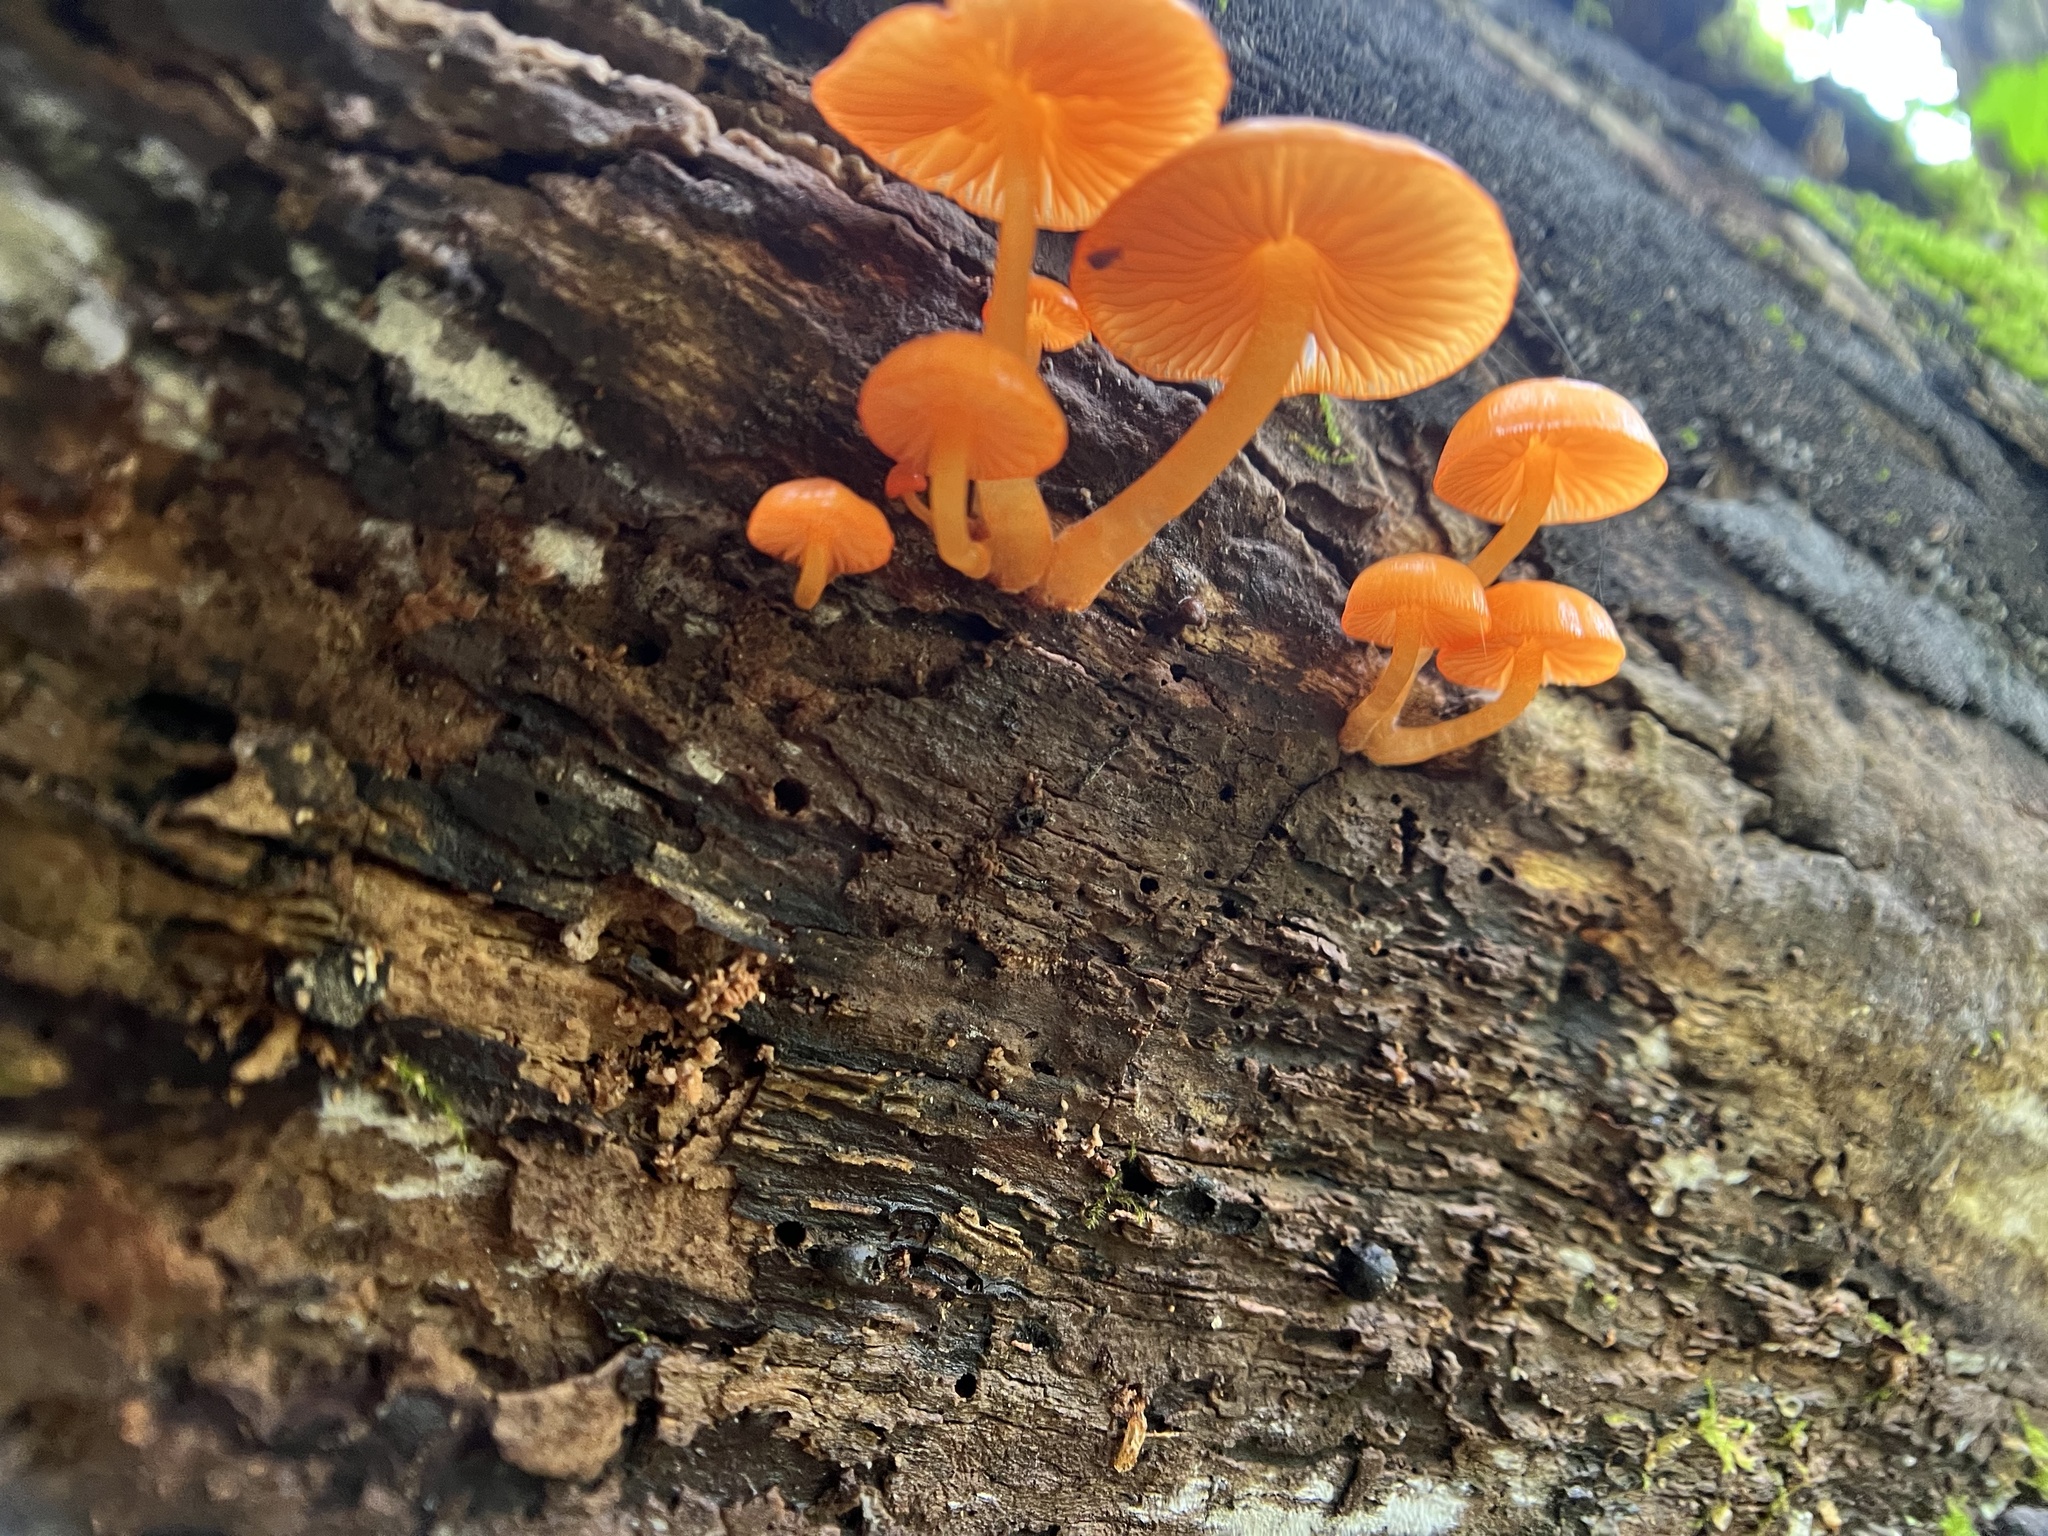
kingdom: Fungi
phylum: Basidiomycota
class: Agaricomycetes
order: Agaricales
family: Mycenaceae
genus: Mycena
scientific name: Mycena leaiana
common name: Orange mycena
